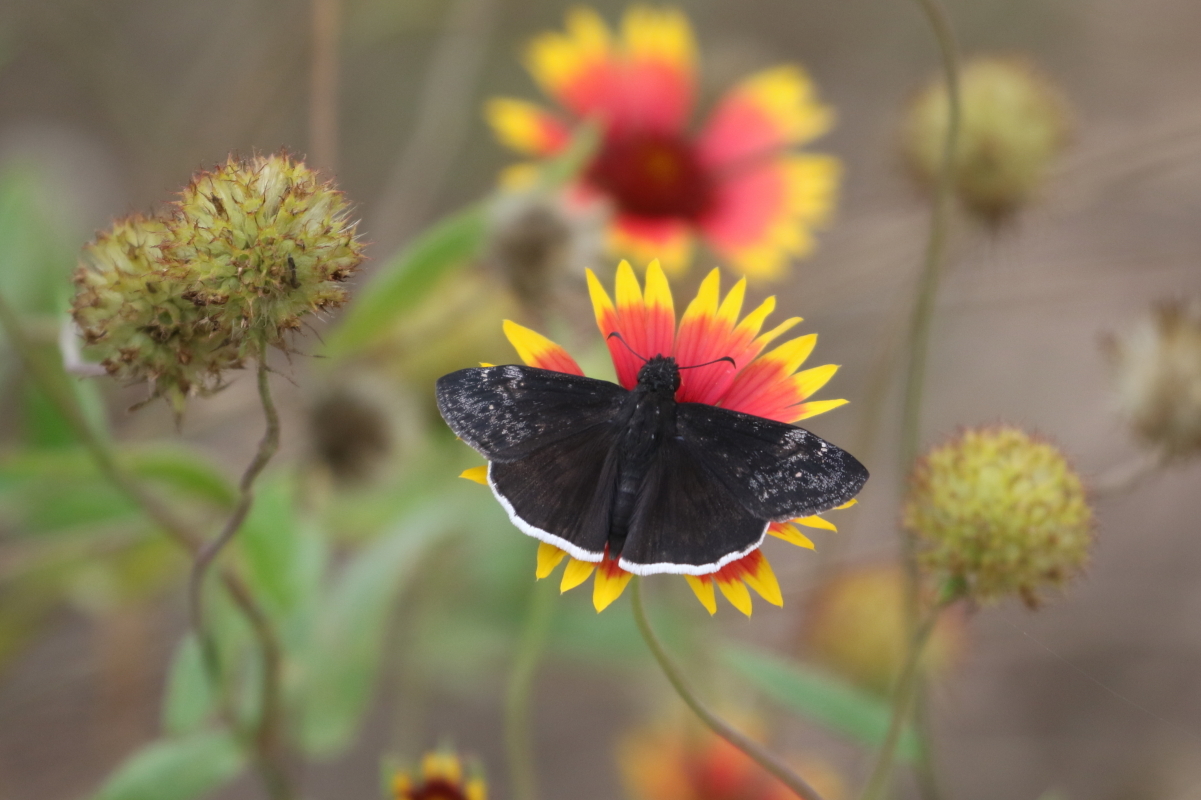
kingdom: Animalia
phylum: Arthropoda
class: Insecta
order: Lepidoptera
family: Hesperiidae
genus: Erynnis
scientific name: Erynnis funeralis
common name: Funereal duskywing
